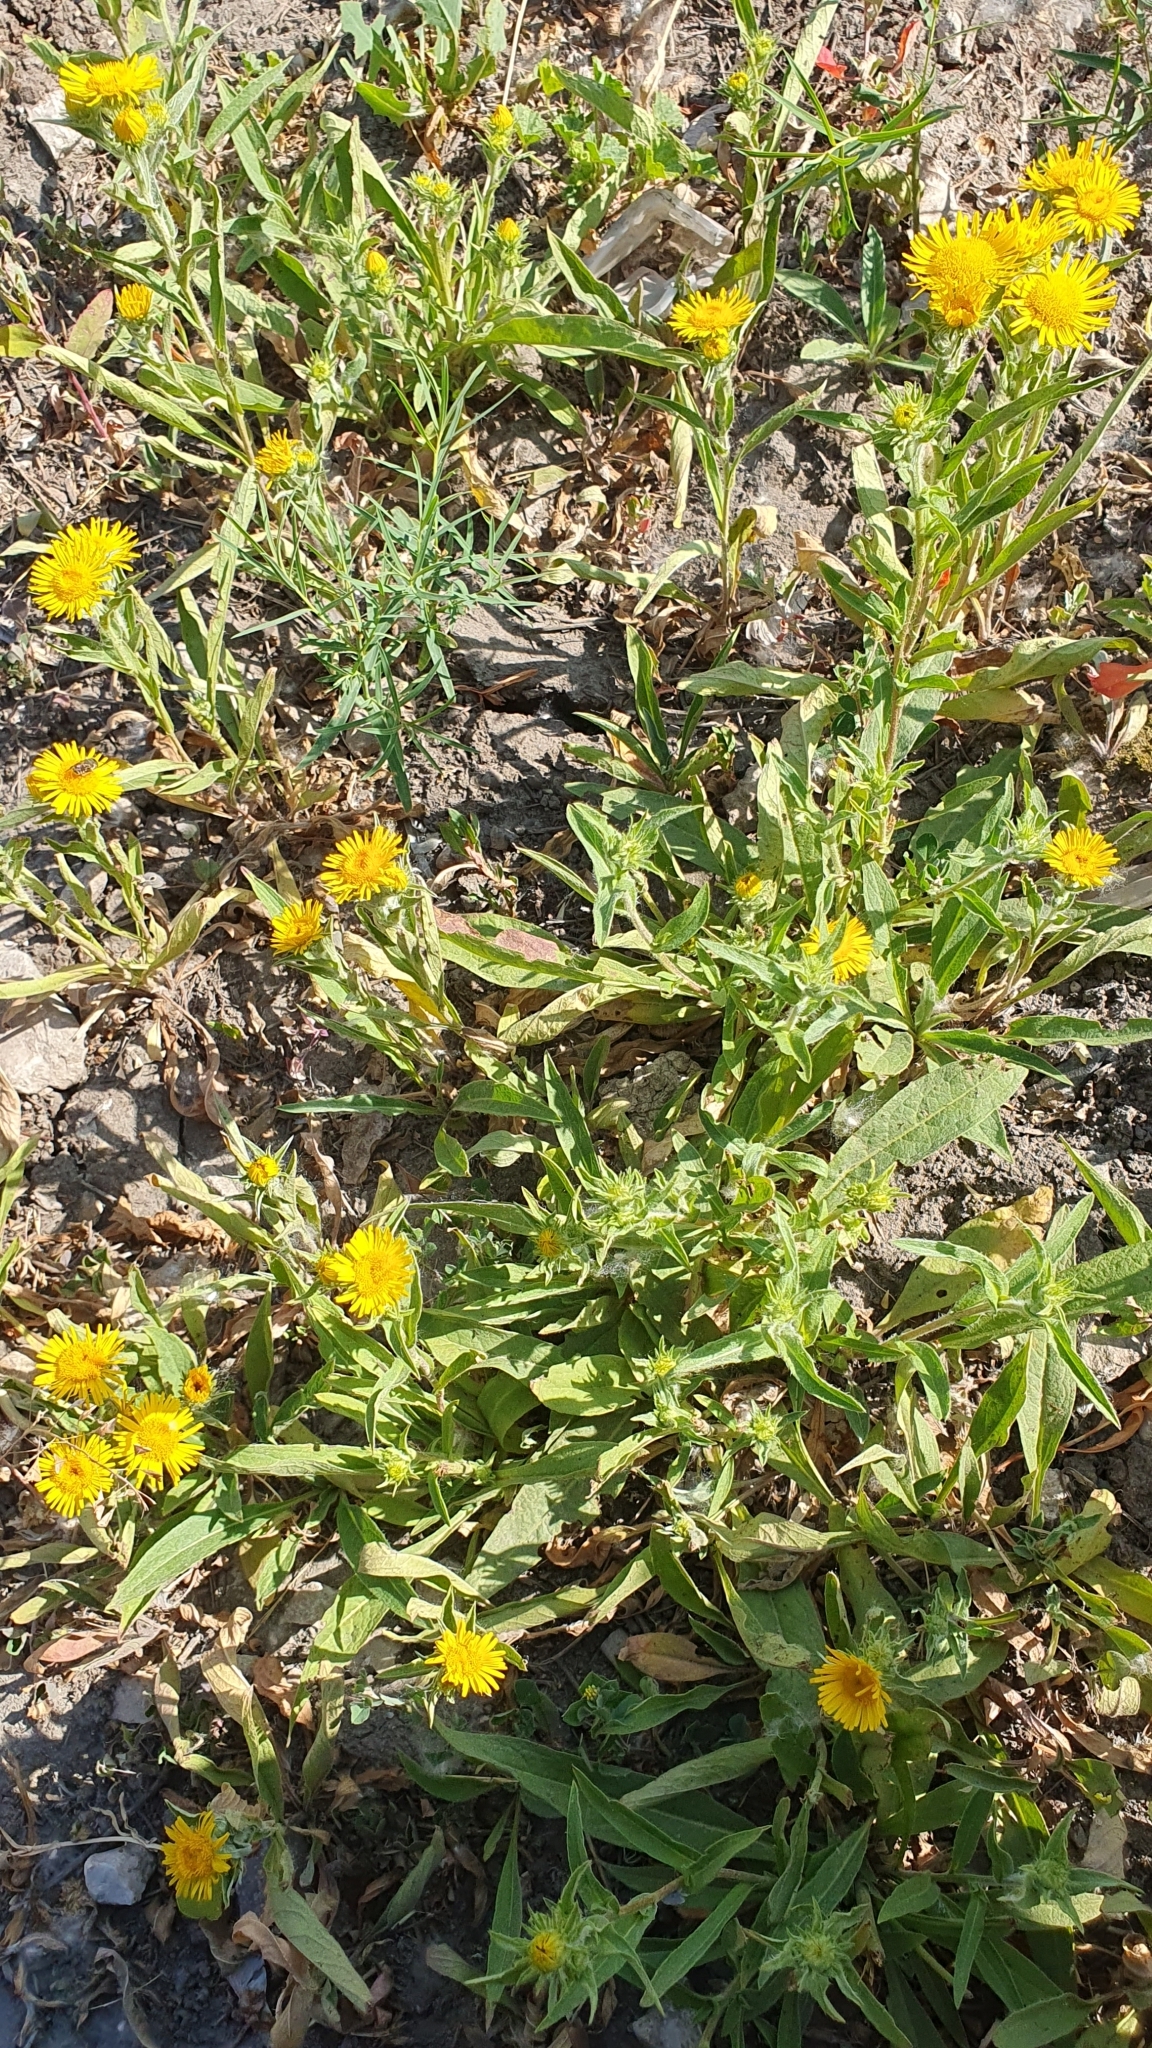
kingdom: Plantae
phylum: Tracheophyta
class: Magnoliopsida
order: Asterales
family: Asteraceae
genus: Pentanema
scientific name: Pentanema britannicum
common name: British elecampane
